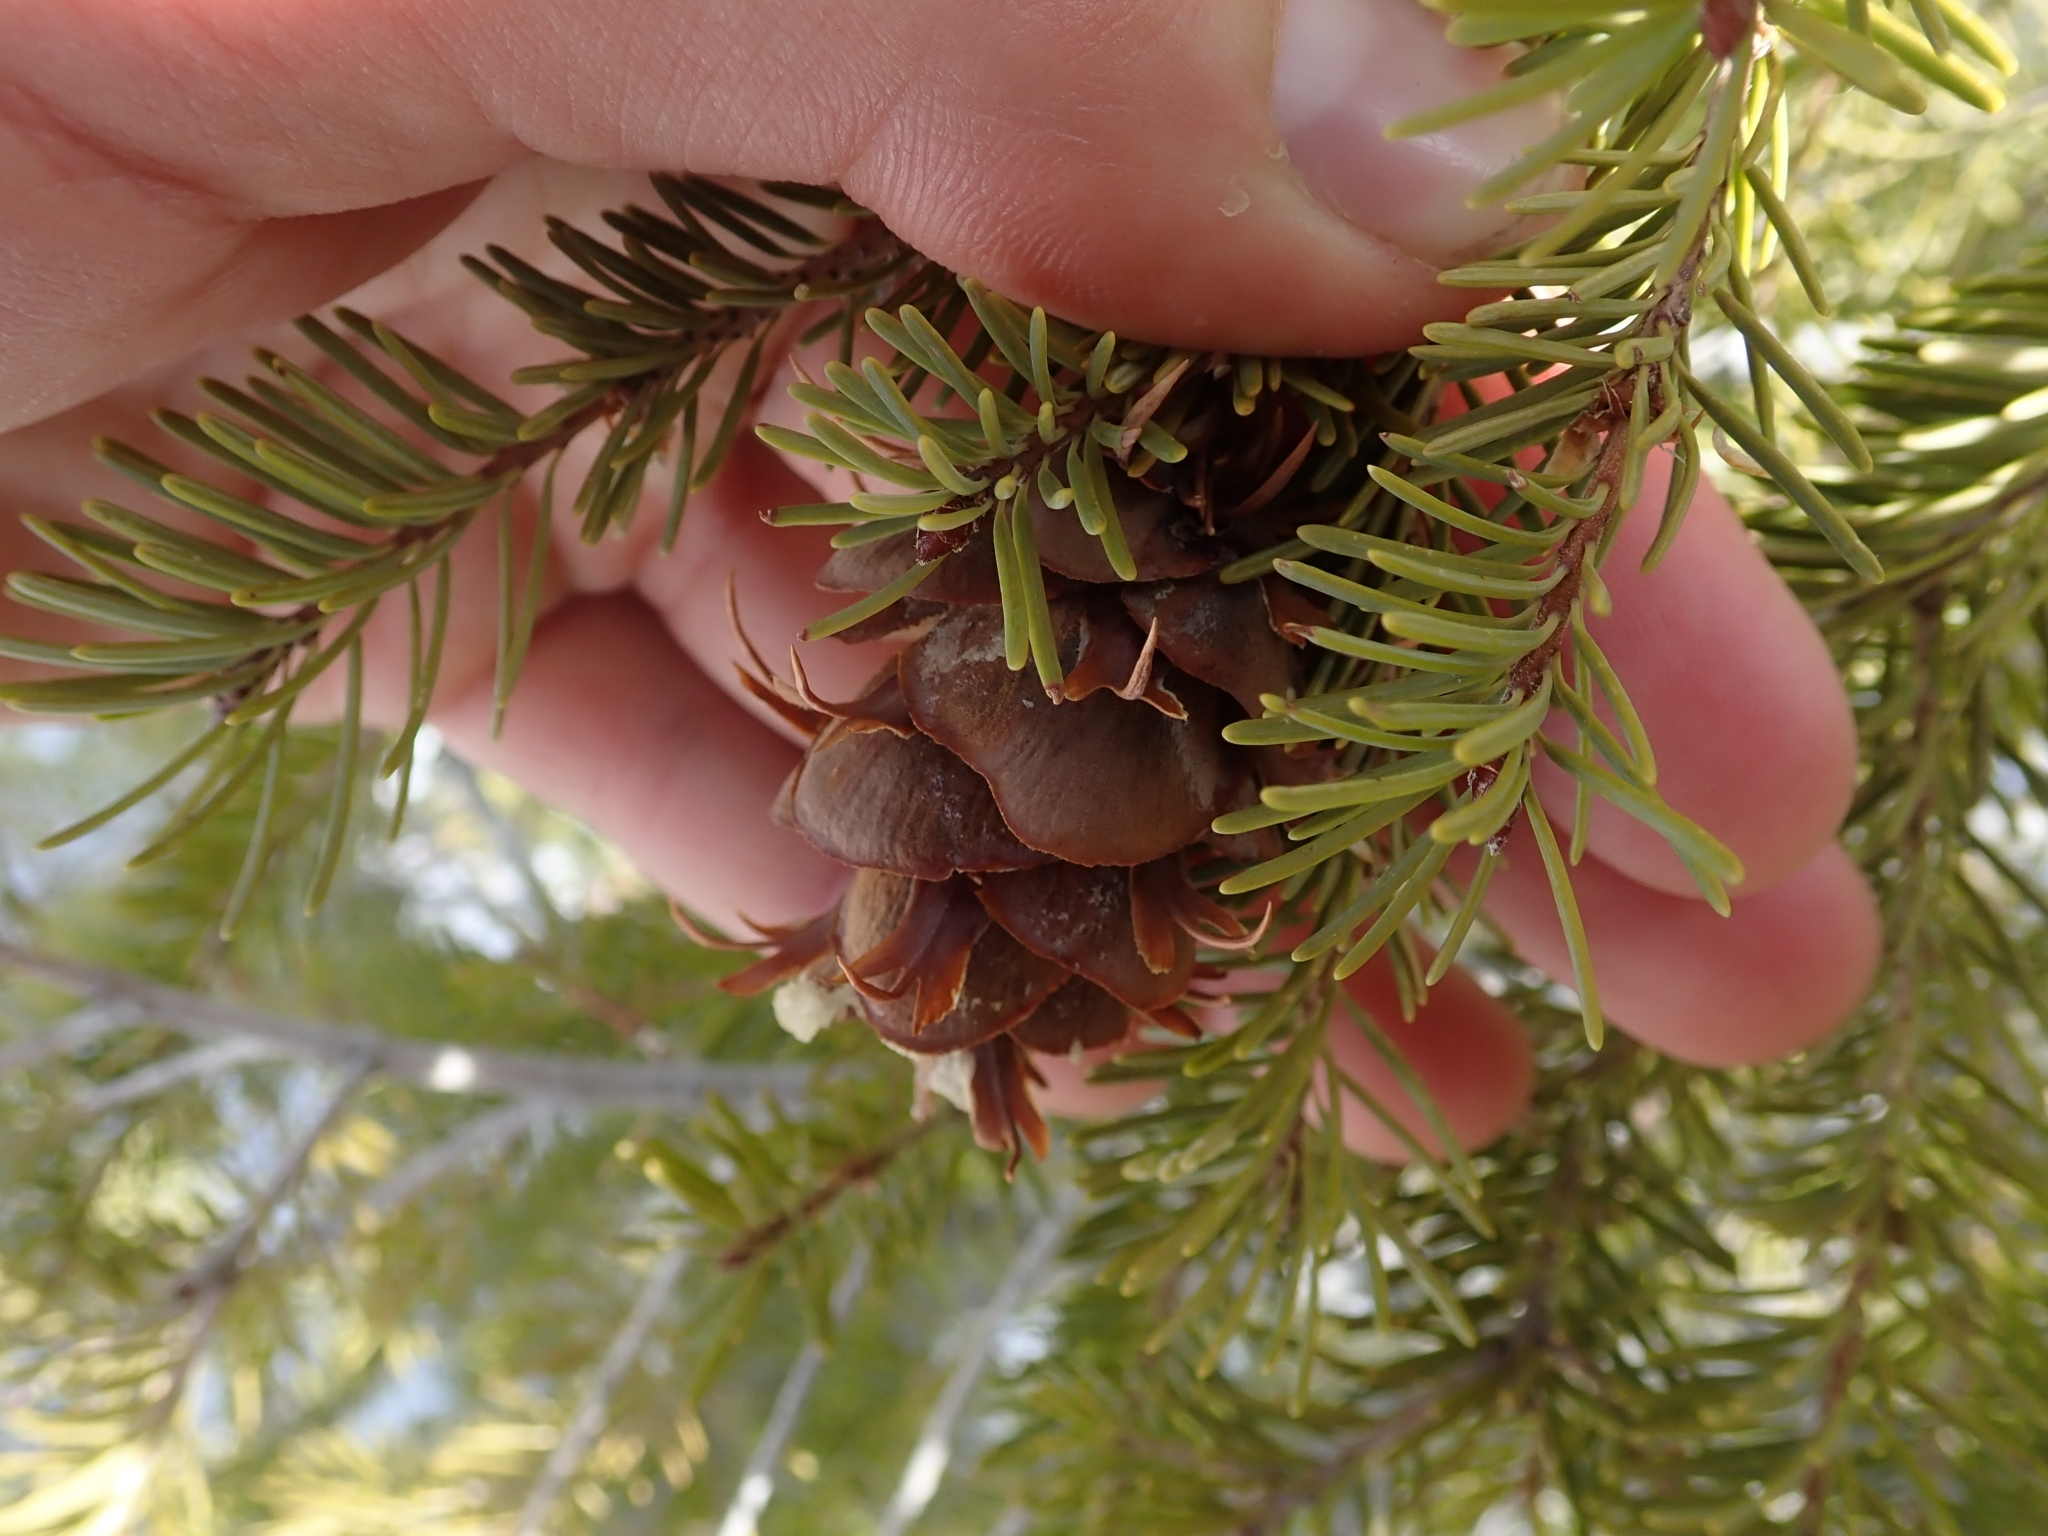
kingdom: Plantae
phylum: Tracheophyta
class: Pinopsida
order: Pinales
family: Pinaceae
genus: Pseudotsuga
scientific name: Pseudotsuga menziesii
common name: Douglas fir
